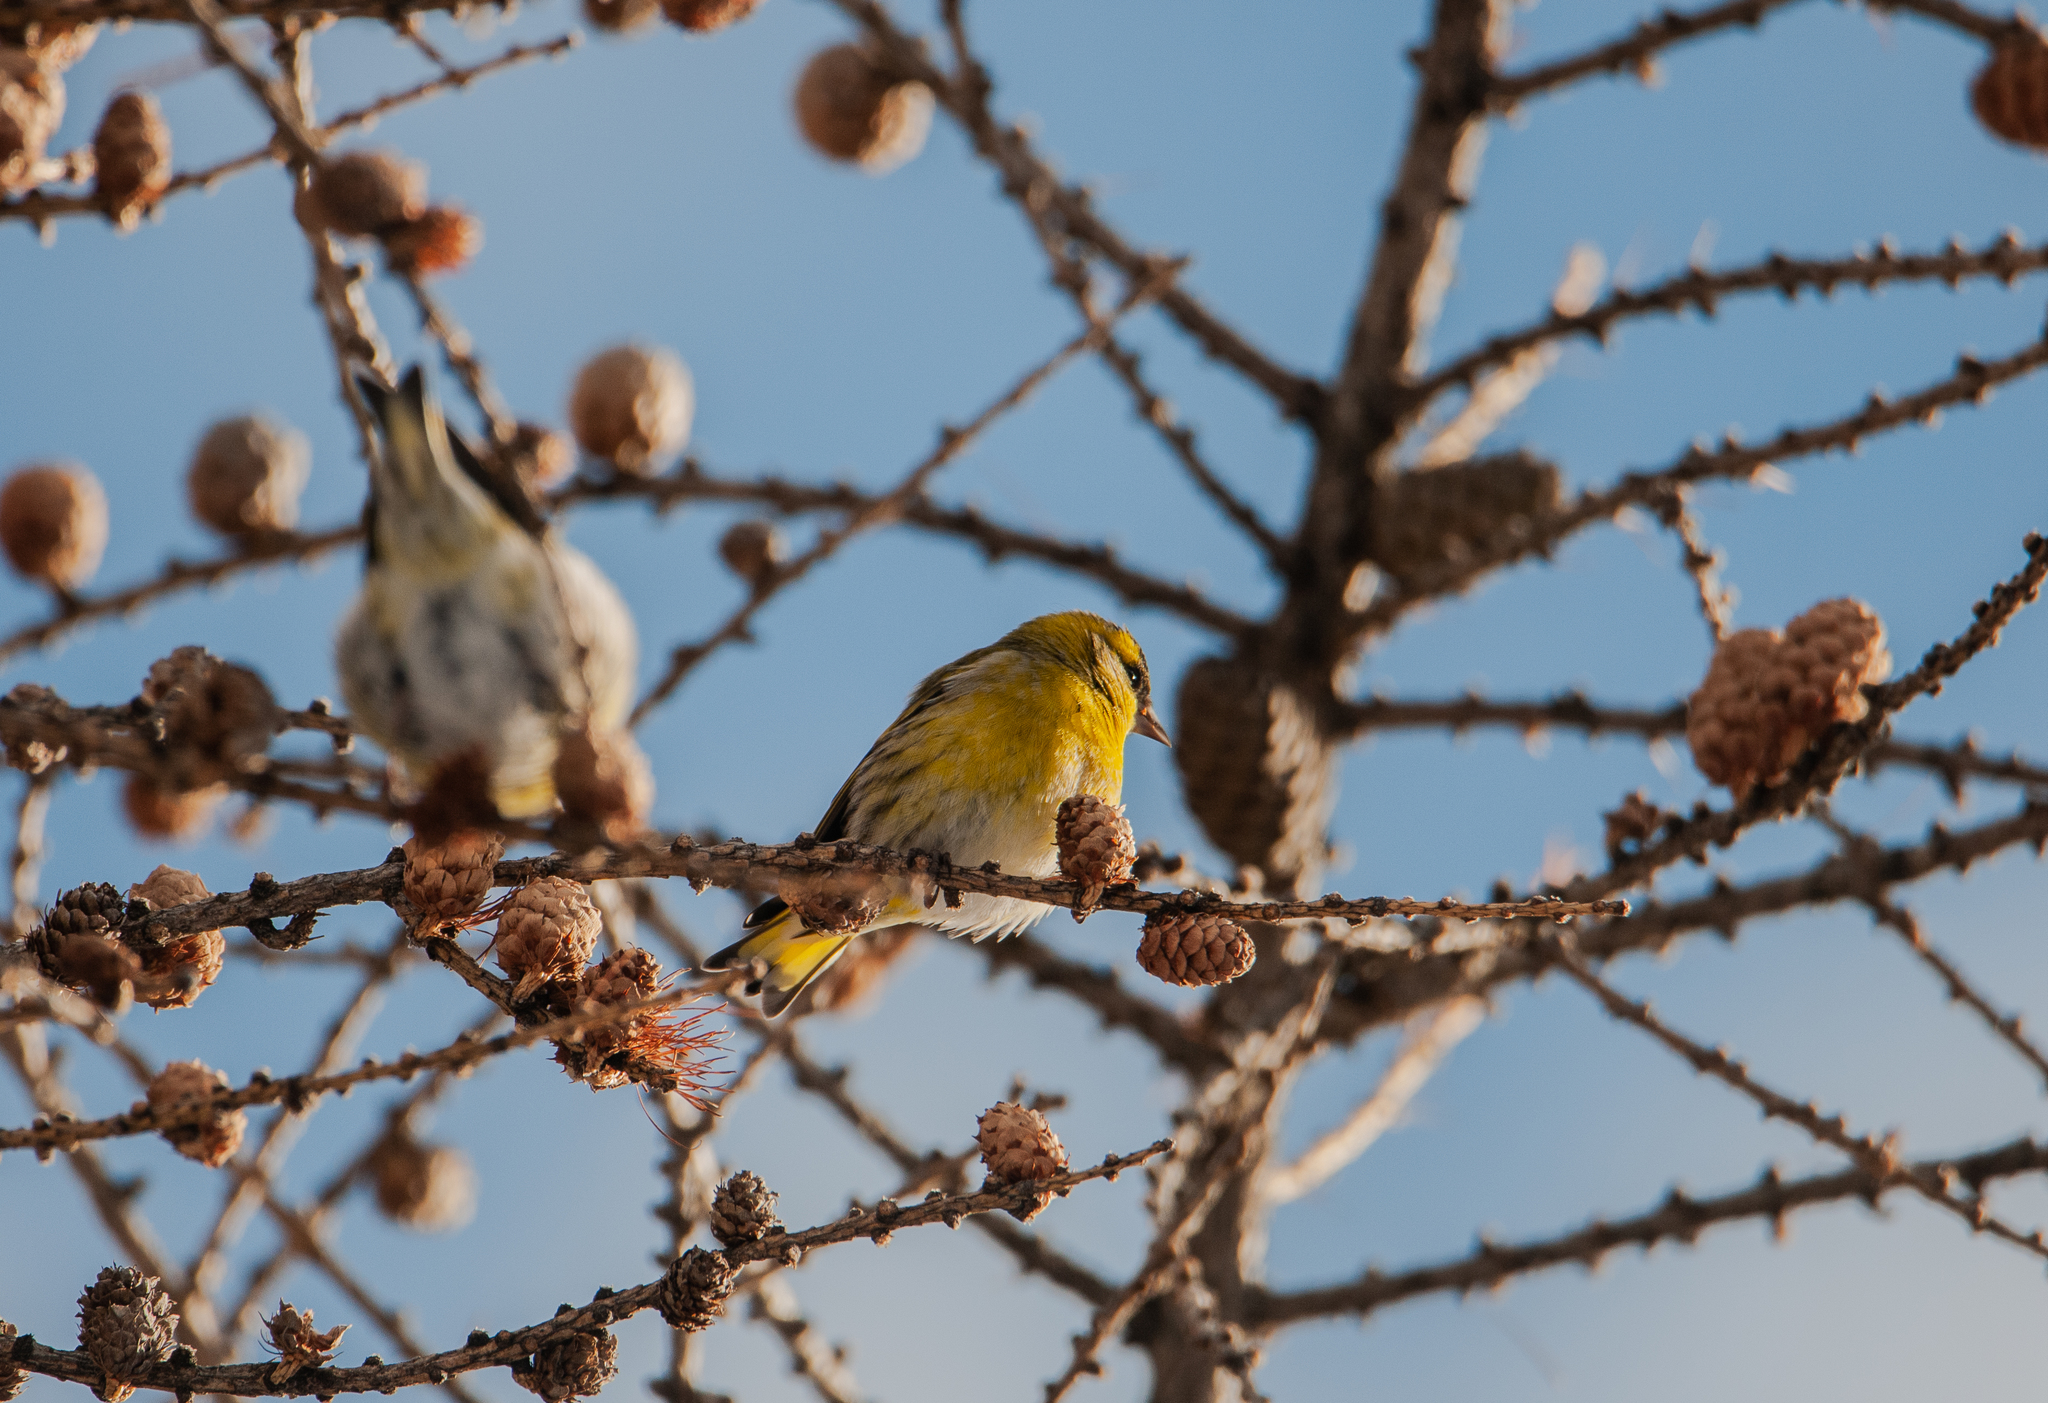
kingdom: Animalia
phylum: Chordata
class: Aves
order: Passeriformes
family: Fringillidae
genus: Spinus
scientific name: Spinus spinus
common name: Eurasian siskin
